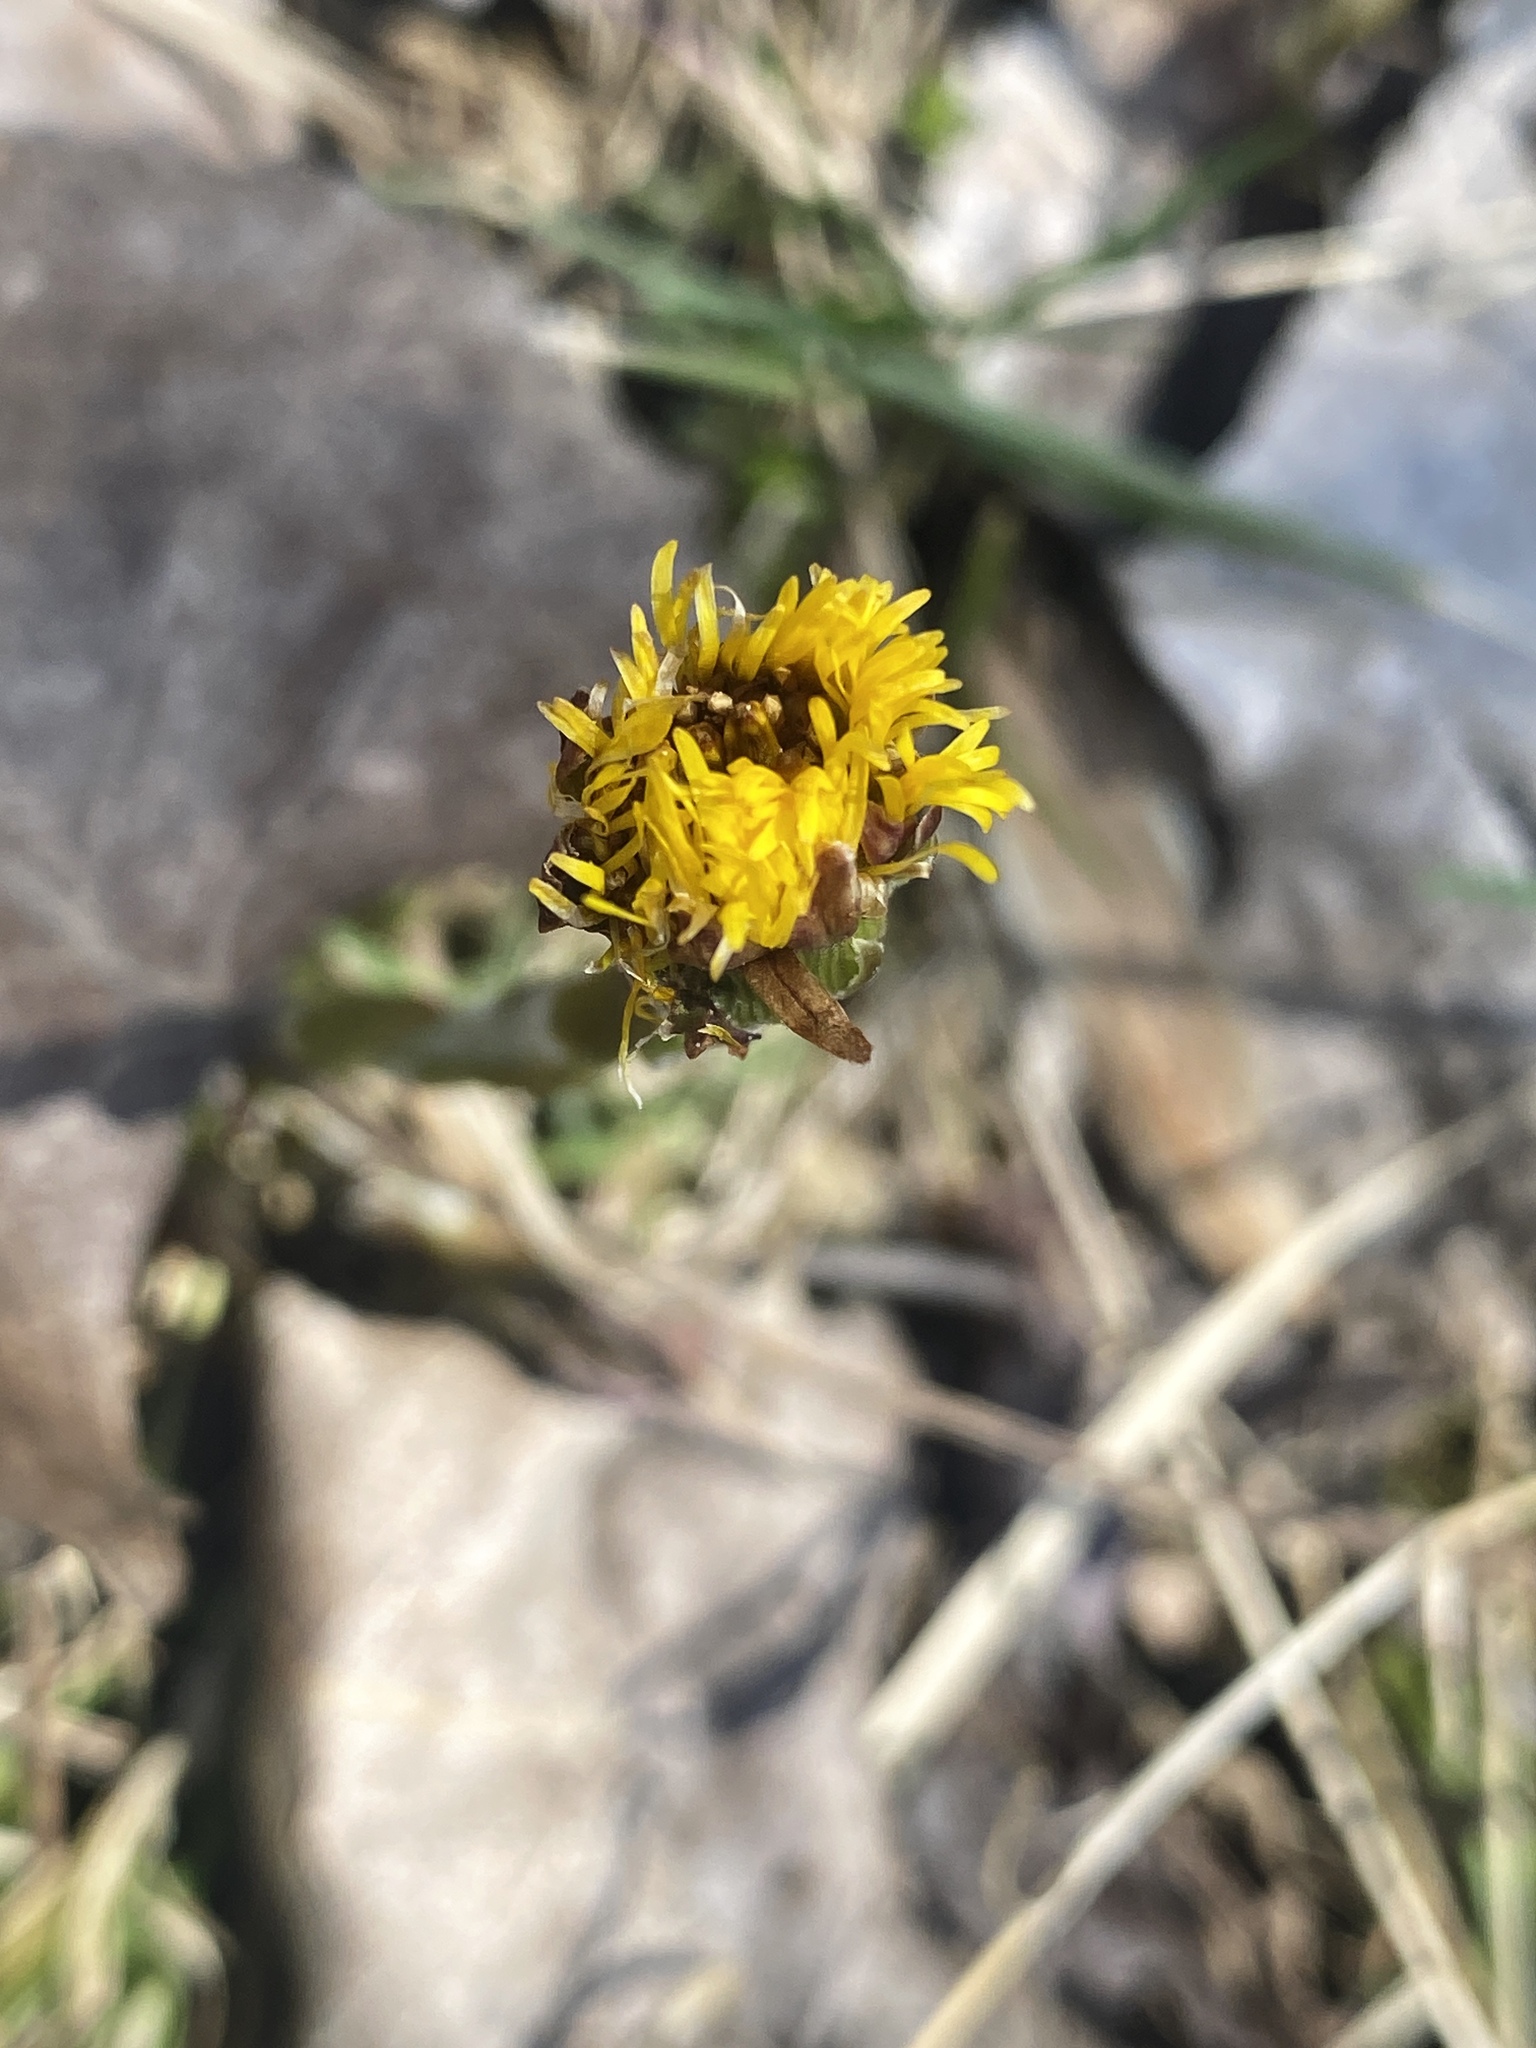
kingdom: Plantae
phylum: Tracheophyta
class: Magnoliopsida
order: Asterales
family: Asteraceae
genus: Tussilago
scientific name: Tussilago farfara
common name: Coltsfoot
